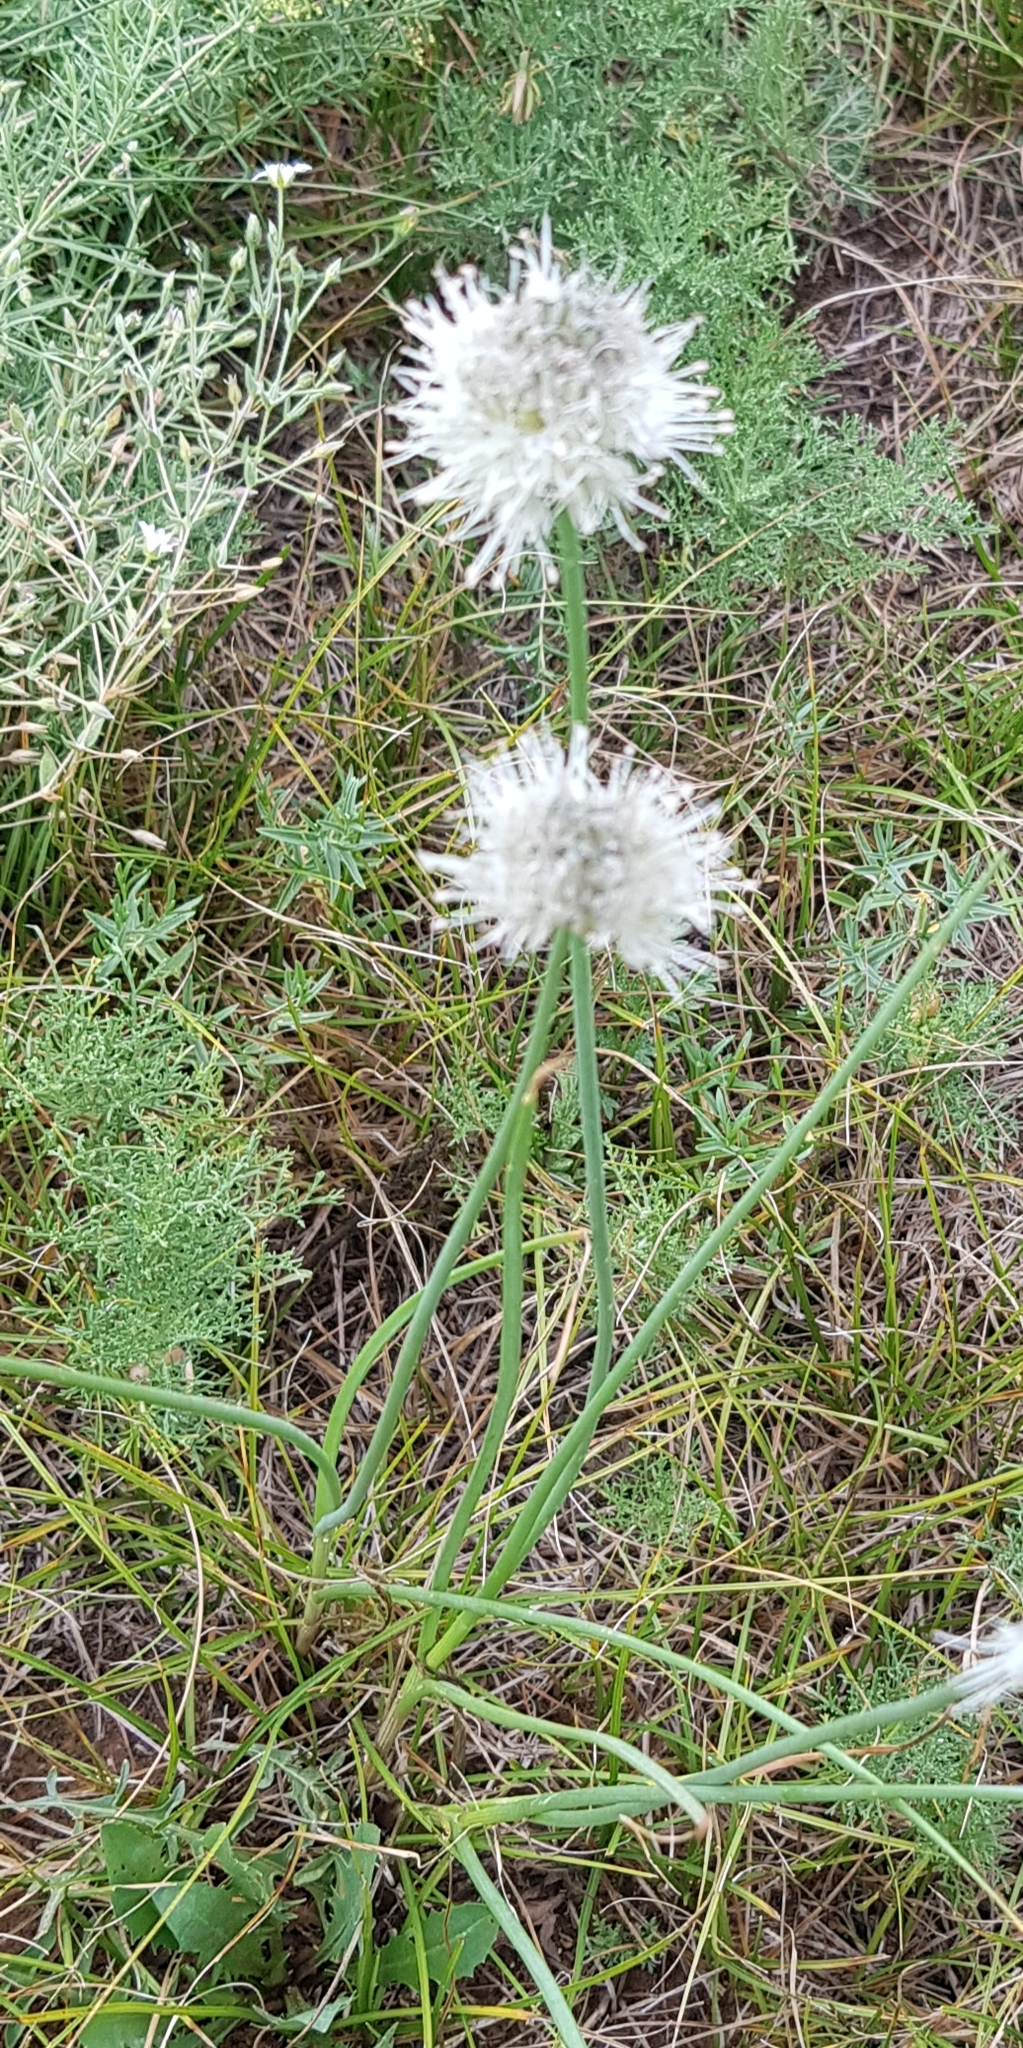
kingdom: Plantae
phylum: Tracheophyta
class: Liliopsida
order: Asparagales
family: Amaryllidaceae
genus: Allium
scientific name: Allium leucocephalum
